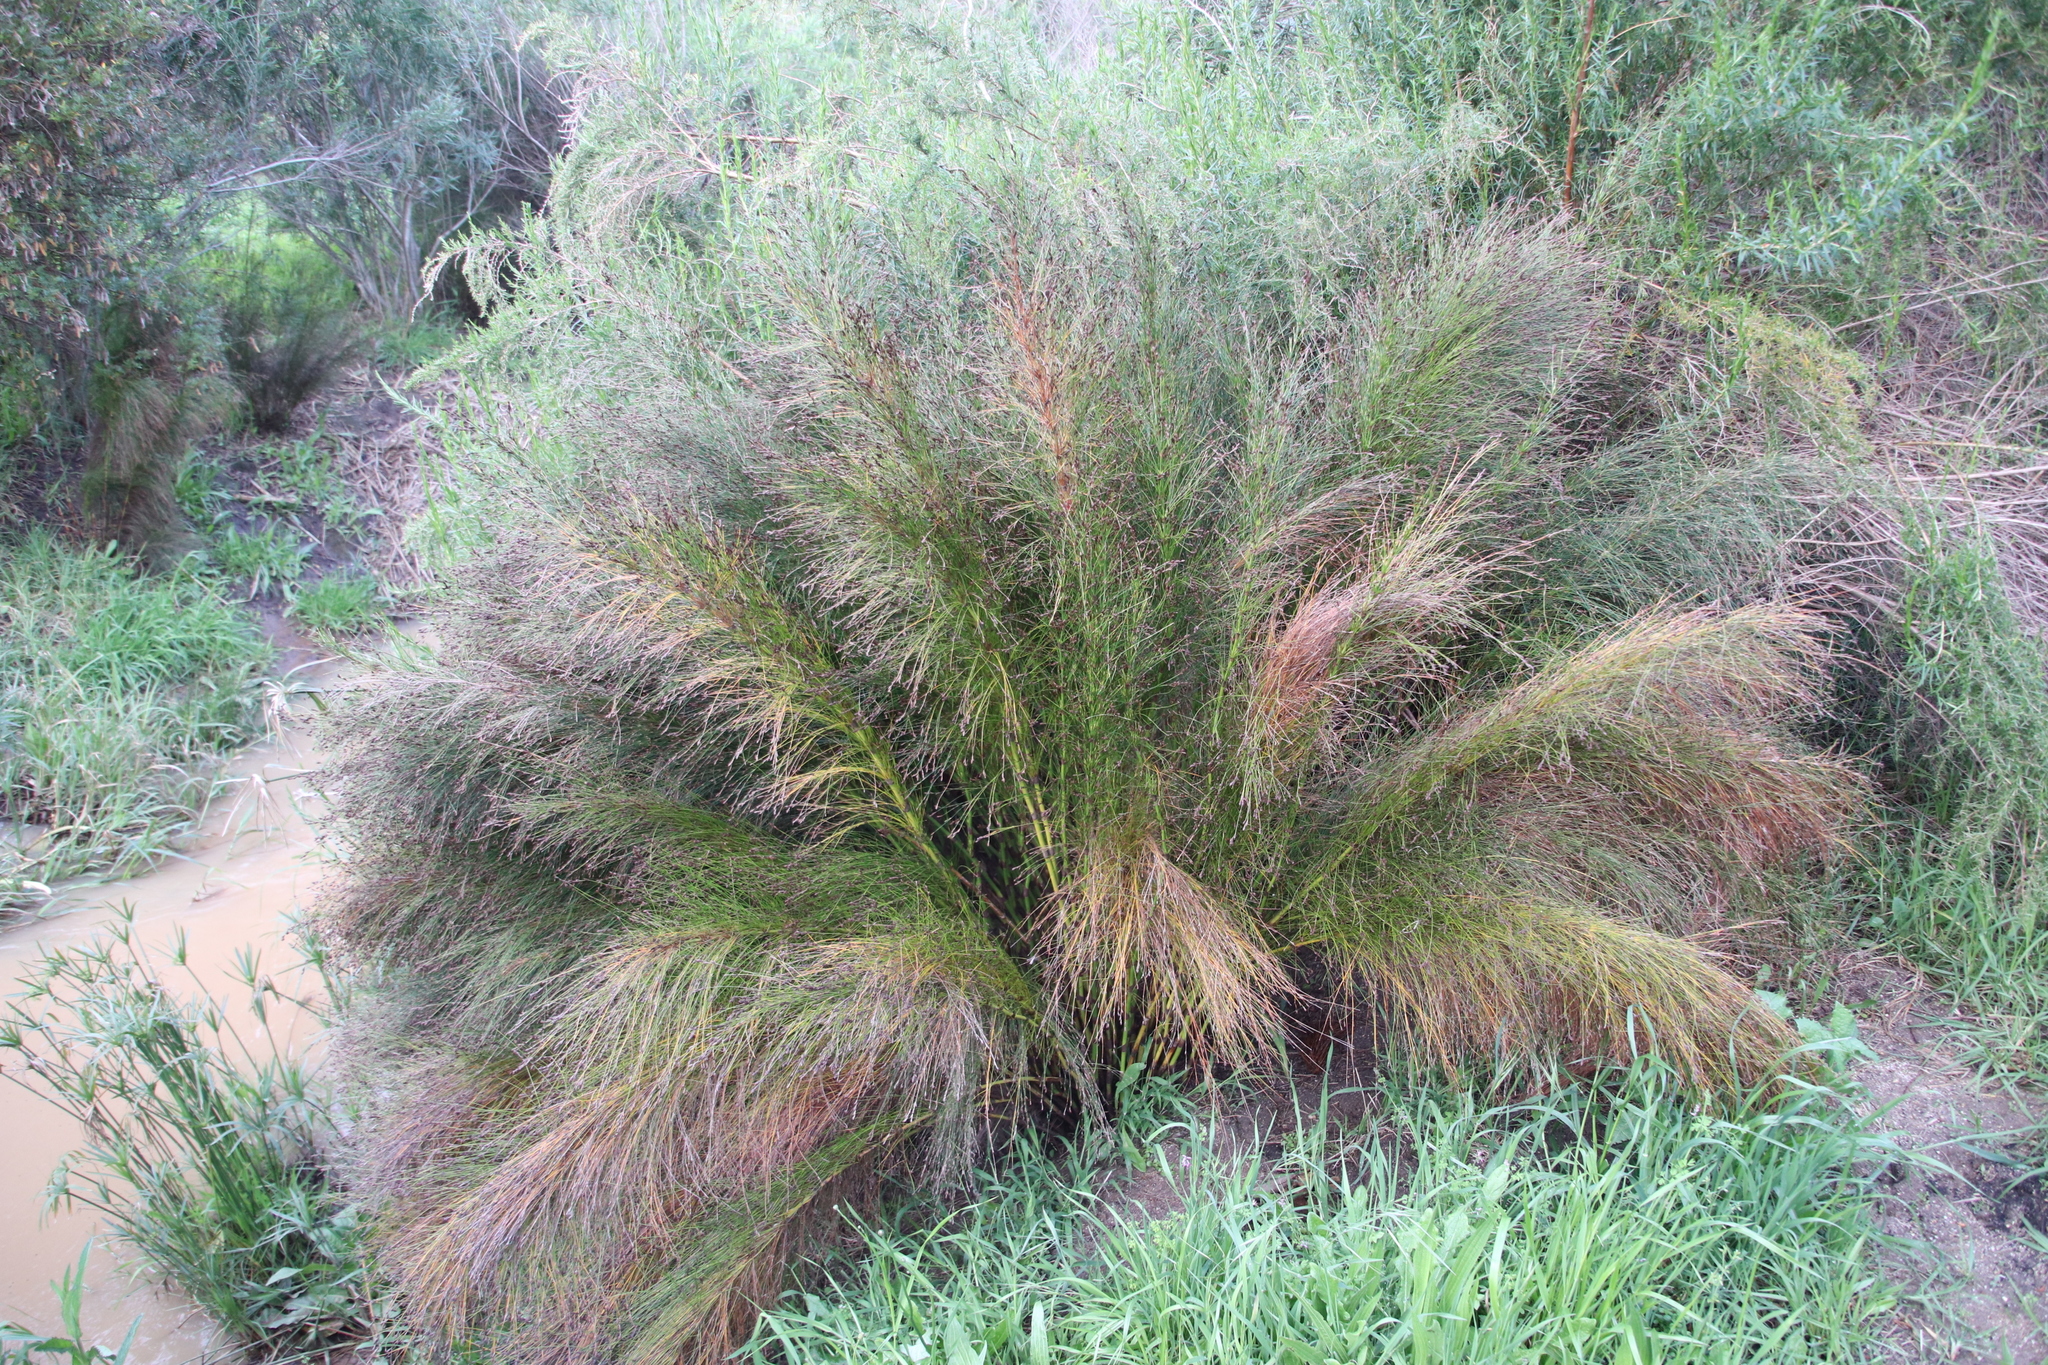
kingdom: Plantae
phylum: Tracheophyta
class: Liliopsida
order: Poales
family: Restionaceae
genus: Restio
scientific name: Restio subverticillatus
